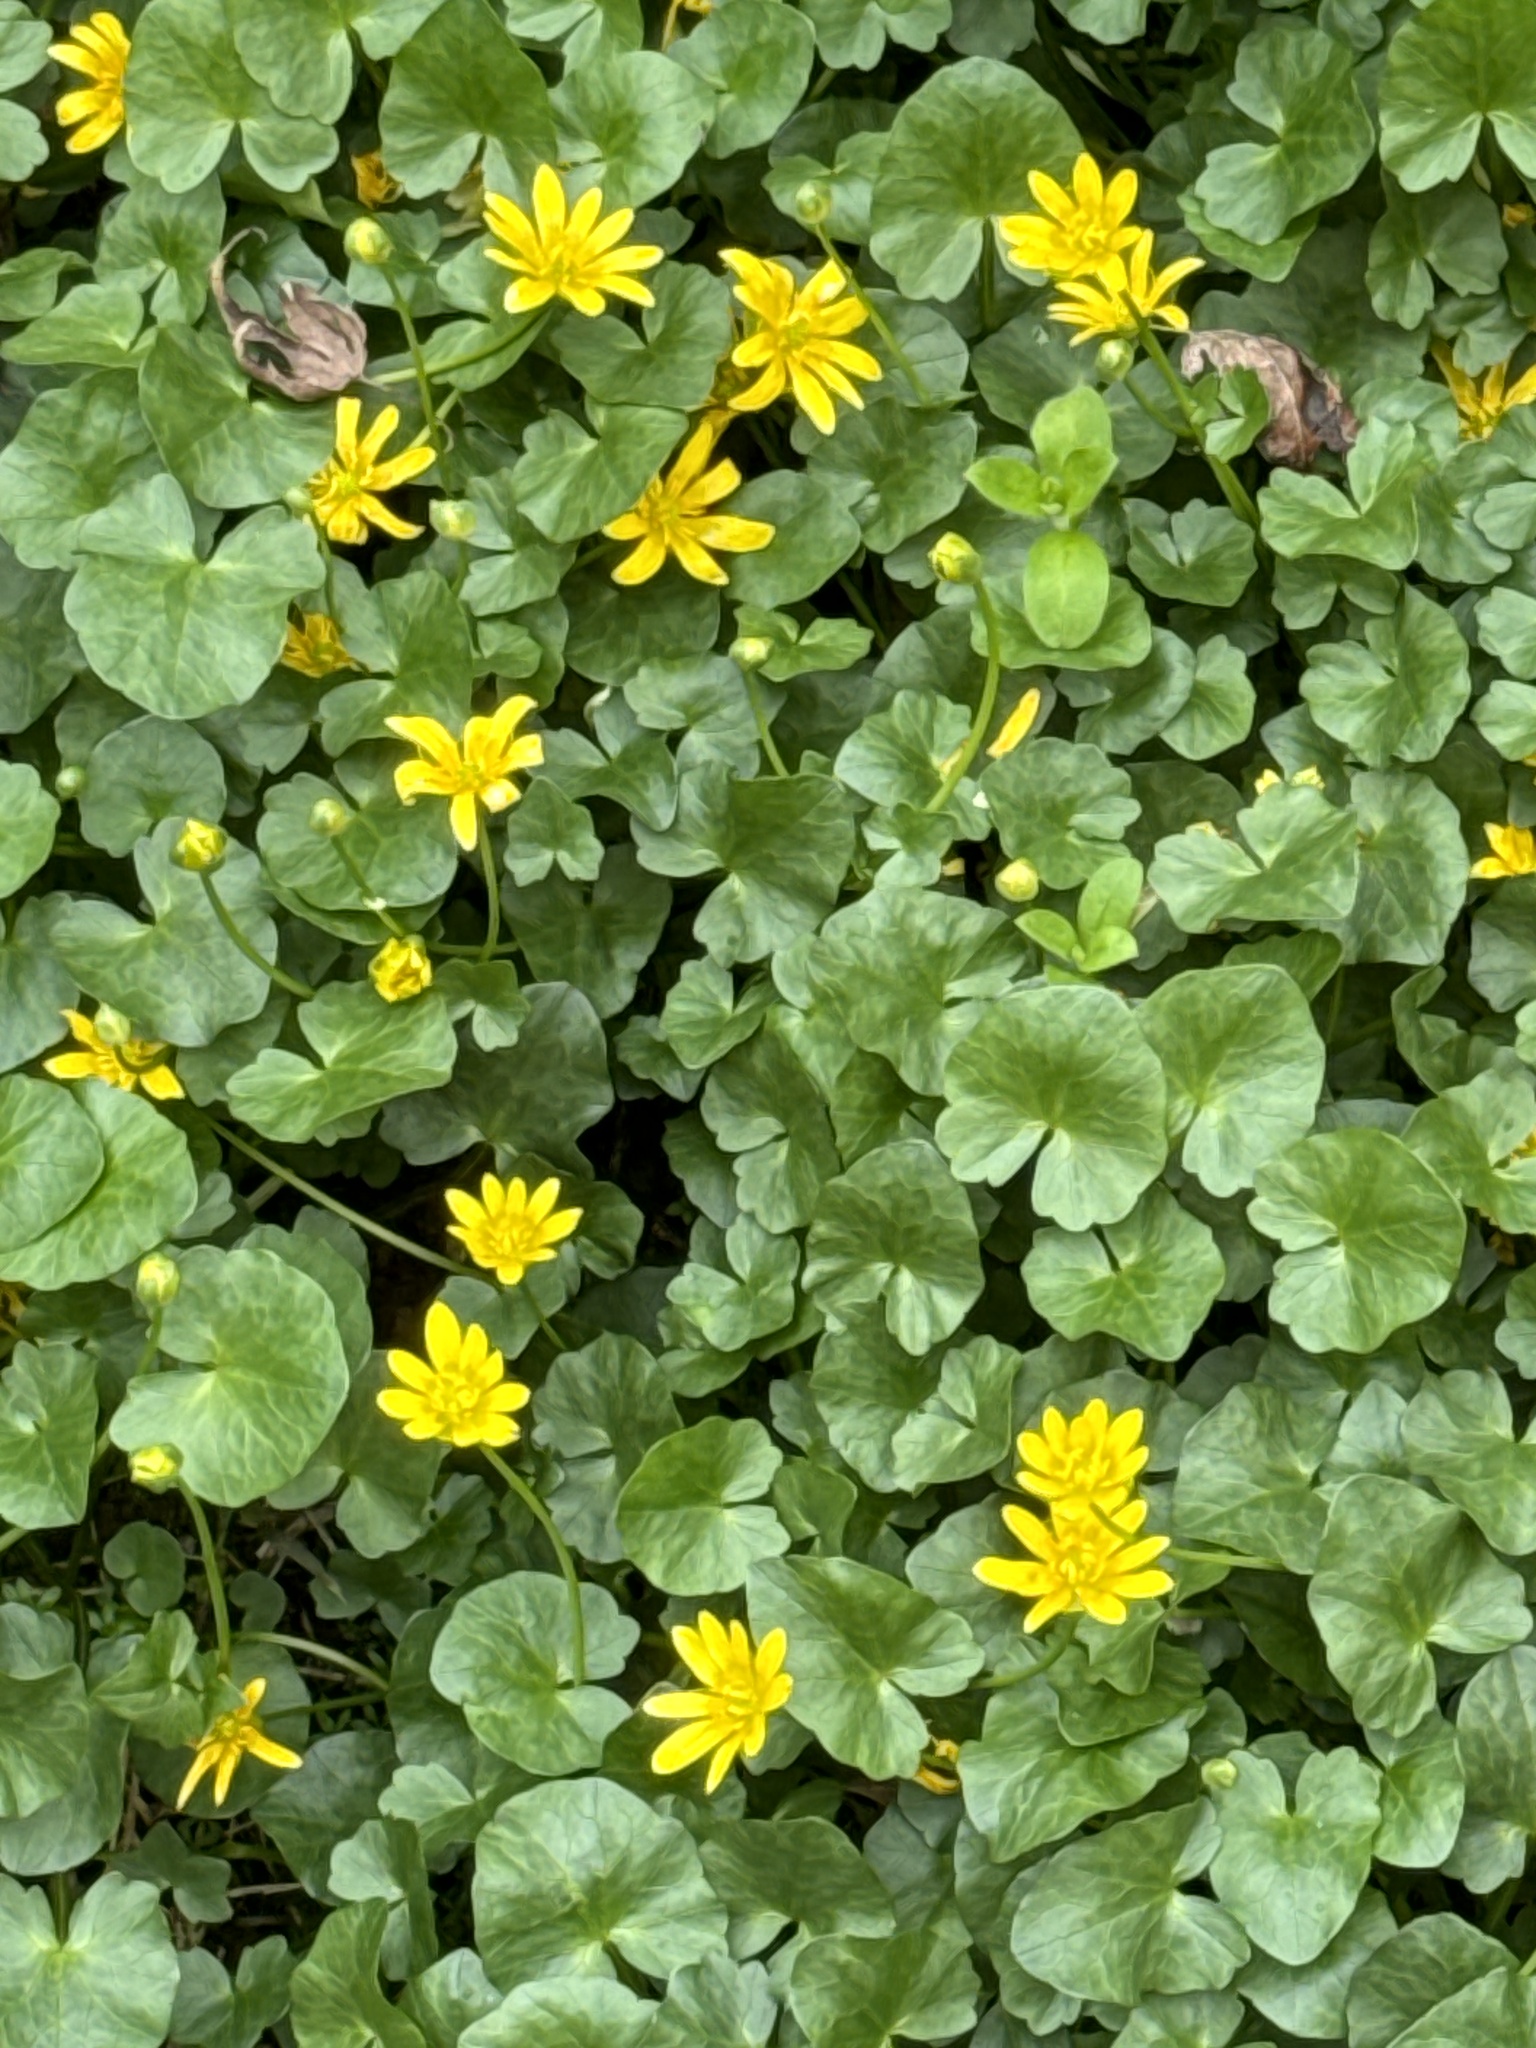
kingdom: Plantae
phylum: Tracheophyta
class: Magnoliopsida
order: Ranunculales
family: Ranunculaceae
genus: Ficaria
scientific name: Ficaria verna
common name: Lesser celandine
